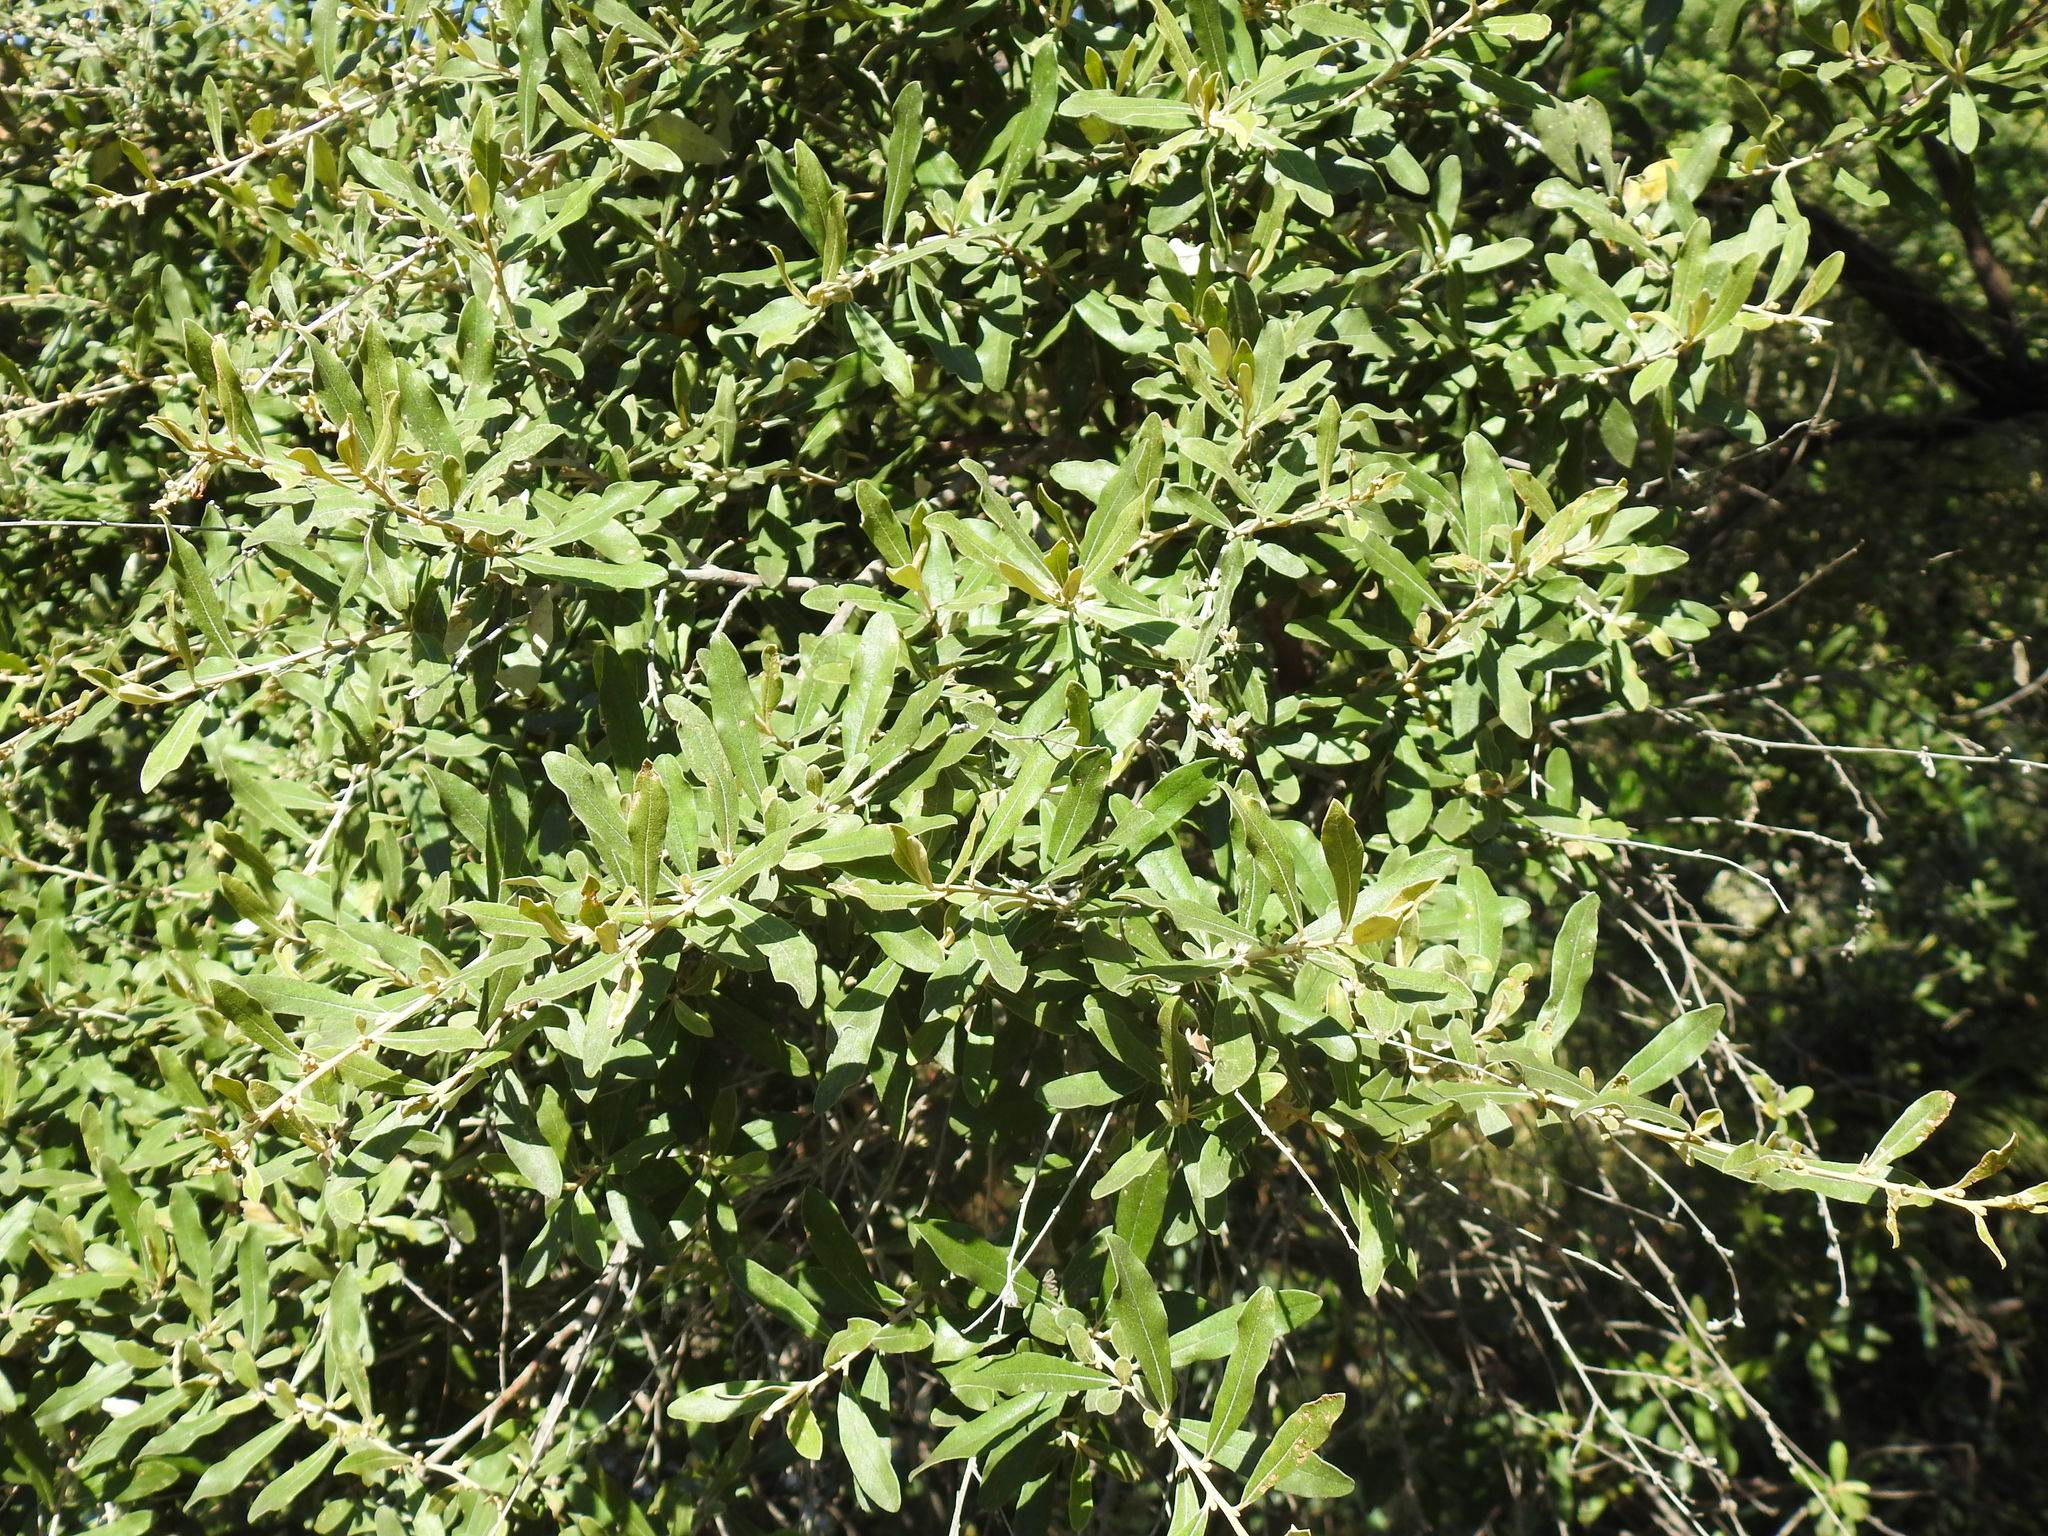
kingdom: Plantae
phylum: Tracheophyta
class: Magnoliopsida
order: Asterales
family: Asteraceae
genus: Tarchonanthus
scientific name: Tarchonanthus camphoratus
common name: Camphorwood
